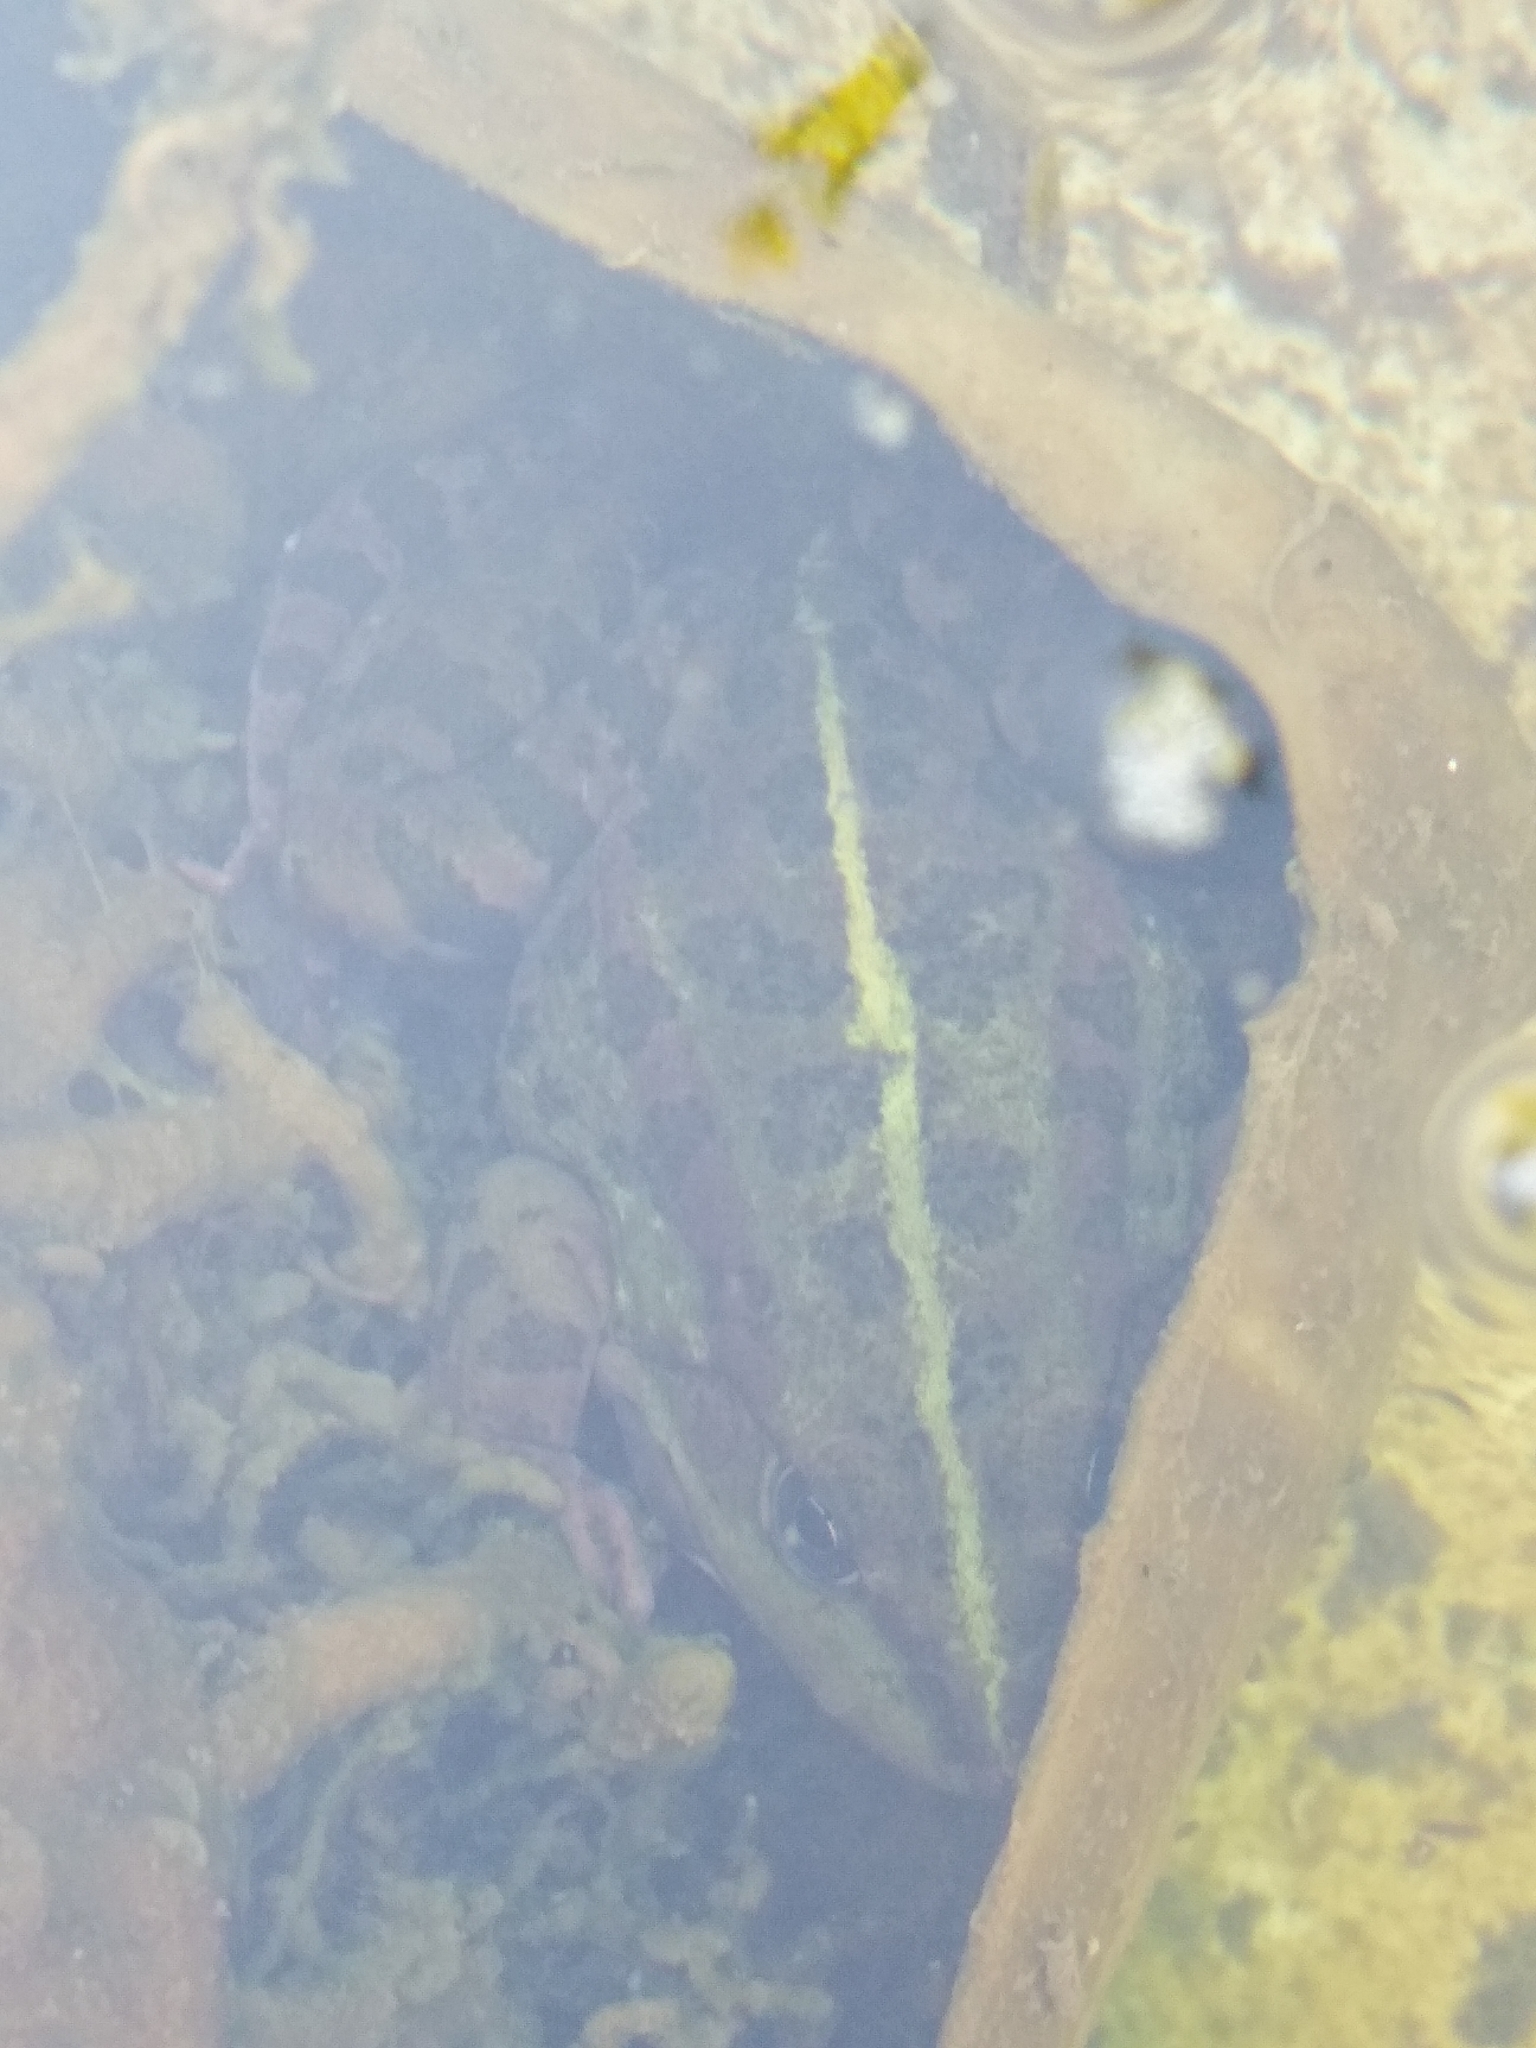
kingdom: Animalia
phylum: Chordata
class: Amphibia
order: Anura
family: Ranidae
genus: Pelophylax
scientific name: Pelophylax ridibundus
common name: Marsh frog
